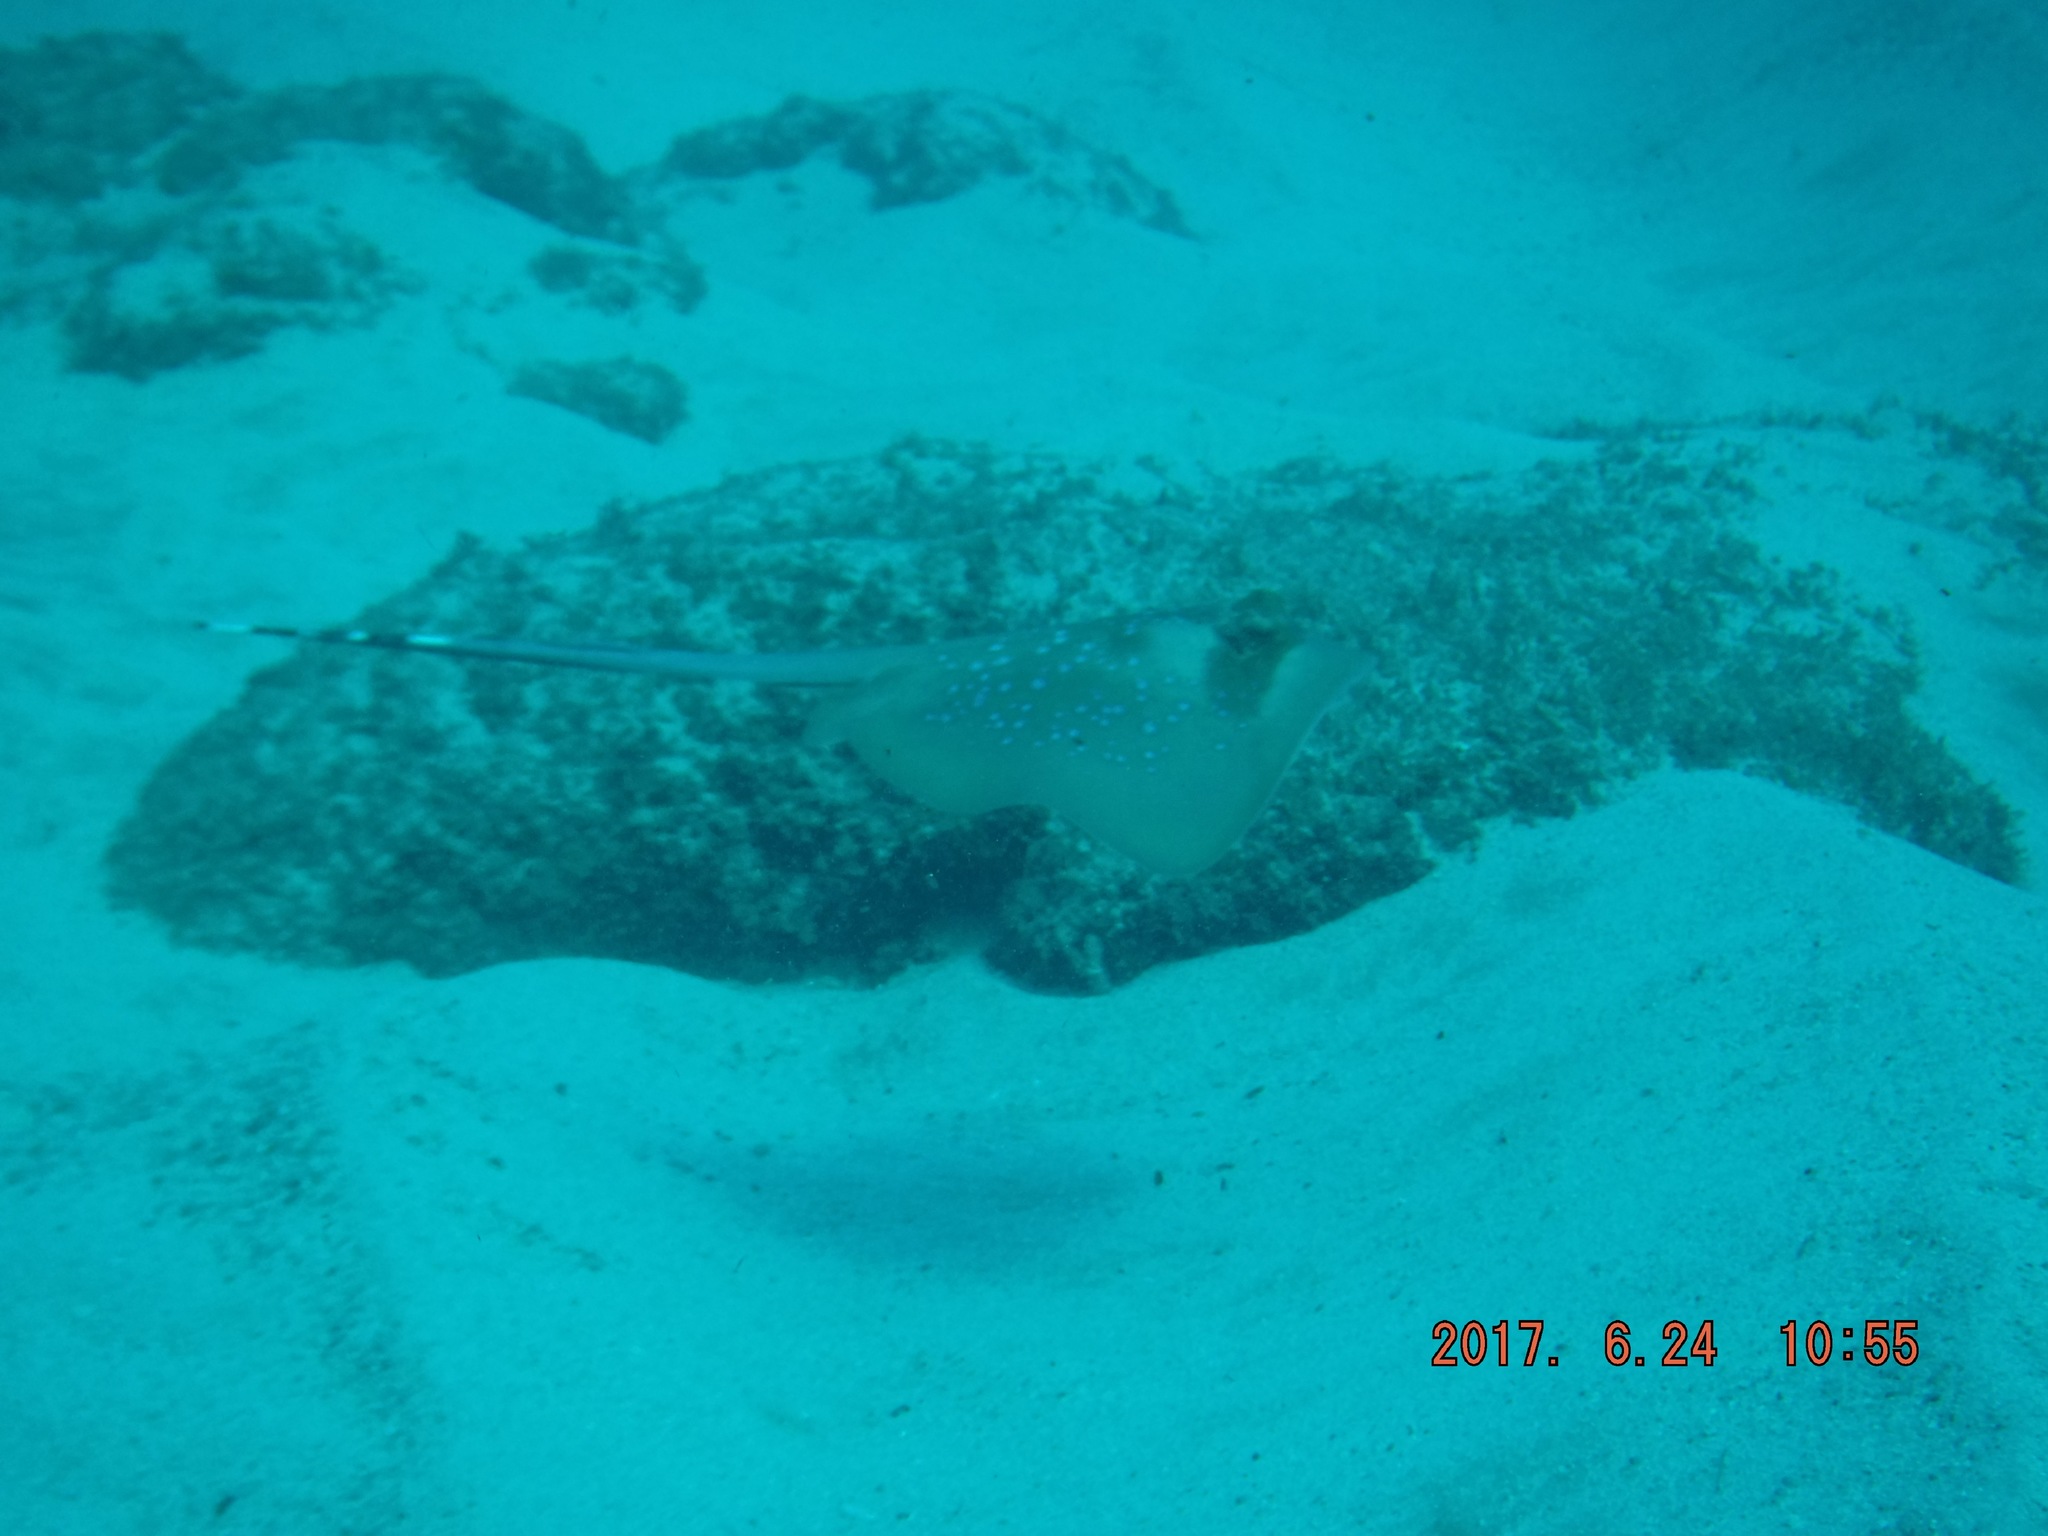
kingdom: Animalia
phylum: Chordata
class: Elasmobranchii
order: Myliobatiformes
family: Dasyatidae
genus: Neotrygon
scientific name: Neotrygon indica
